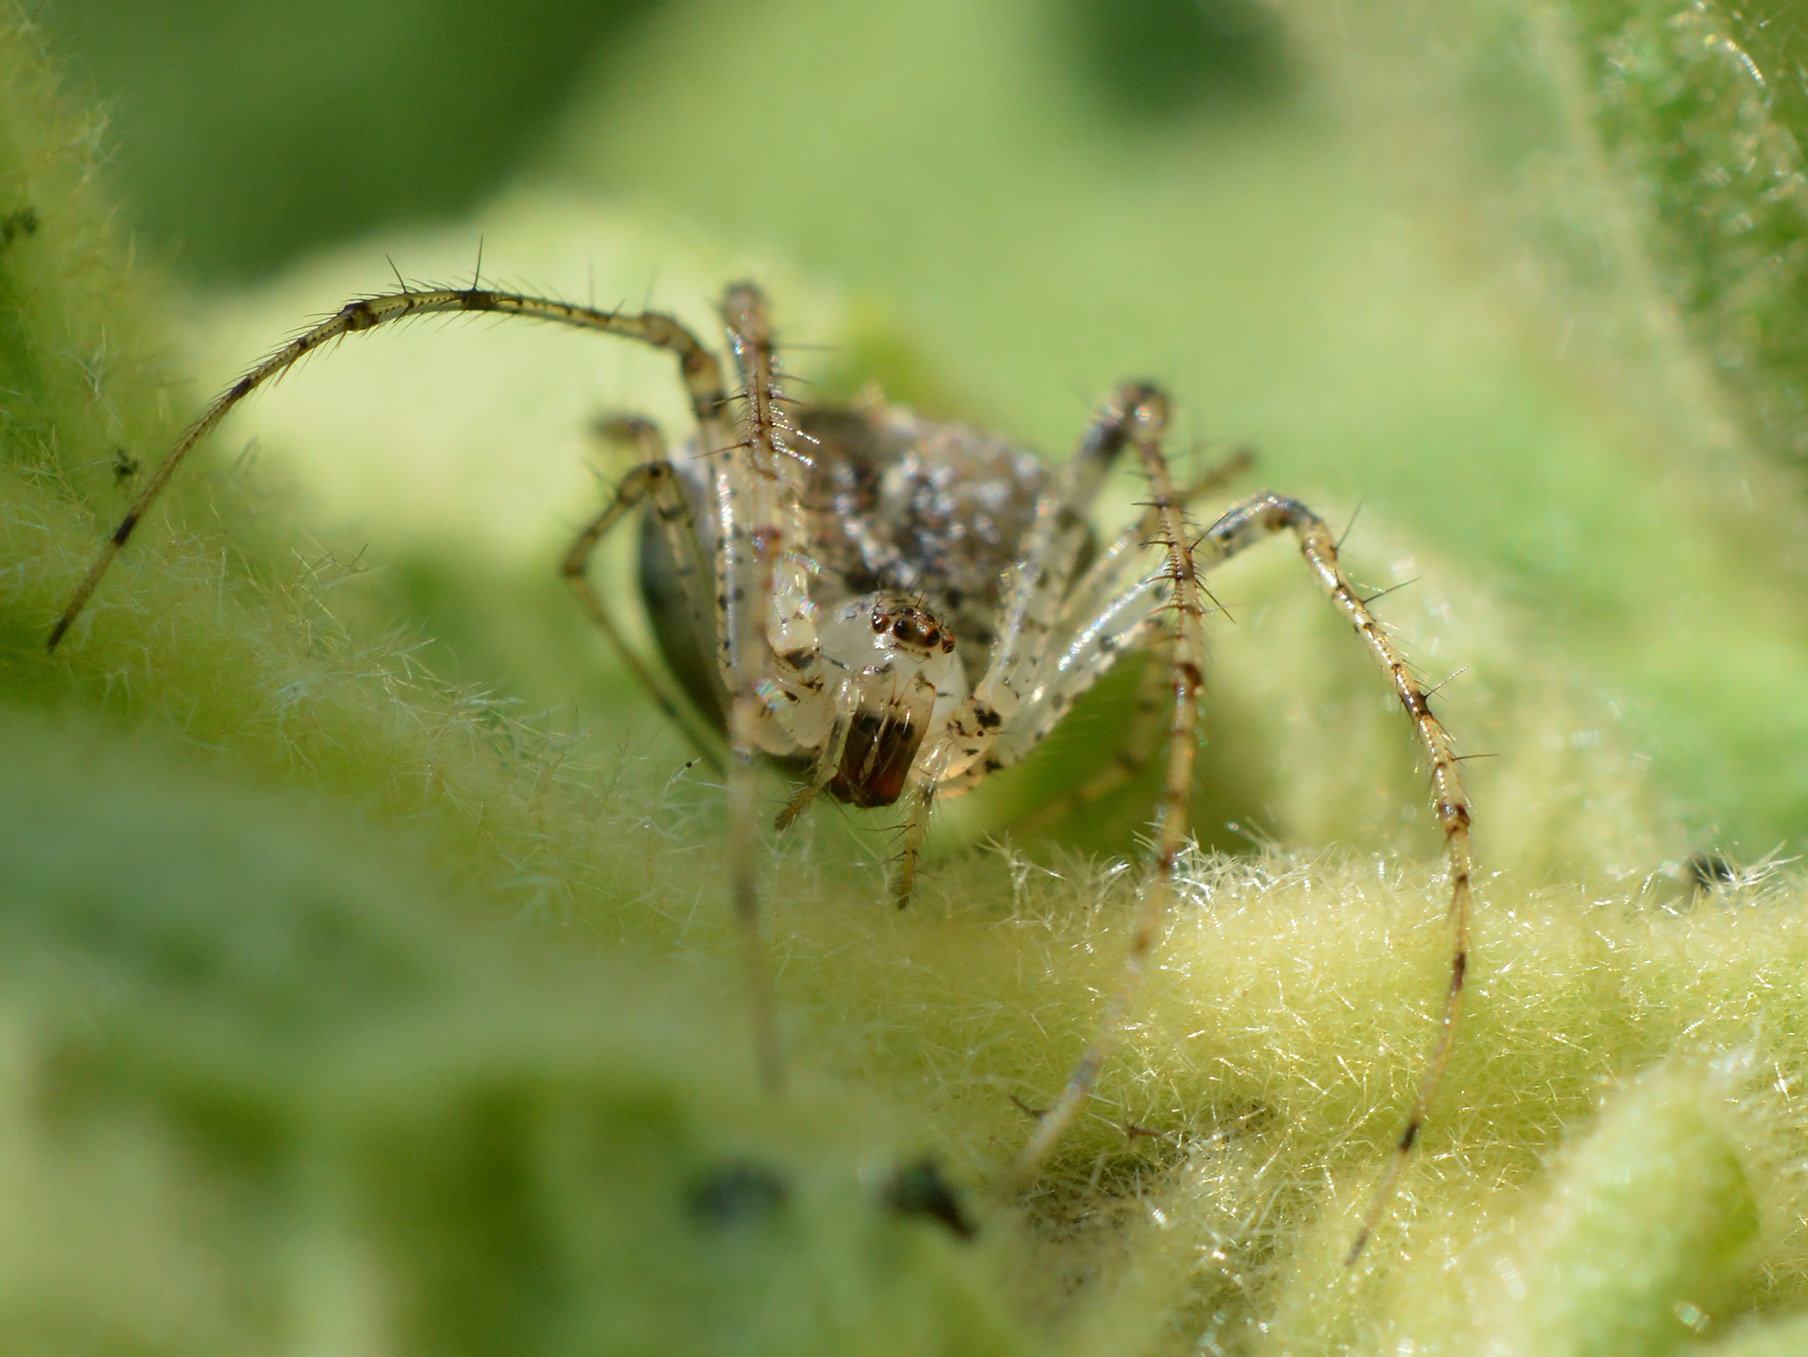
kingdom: Animalia
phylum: Arthropoda
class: Arachnida
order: Araneae
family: Mimetidae
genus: Mimetus
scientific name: Mimetus laevigatus
